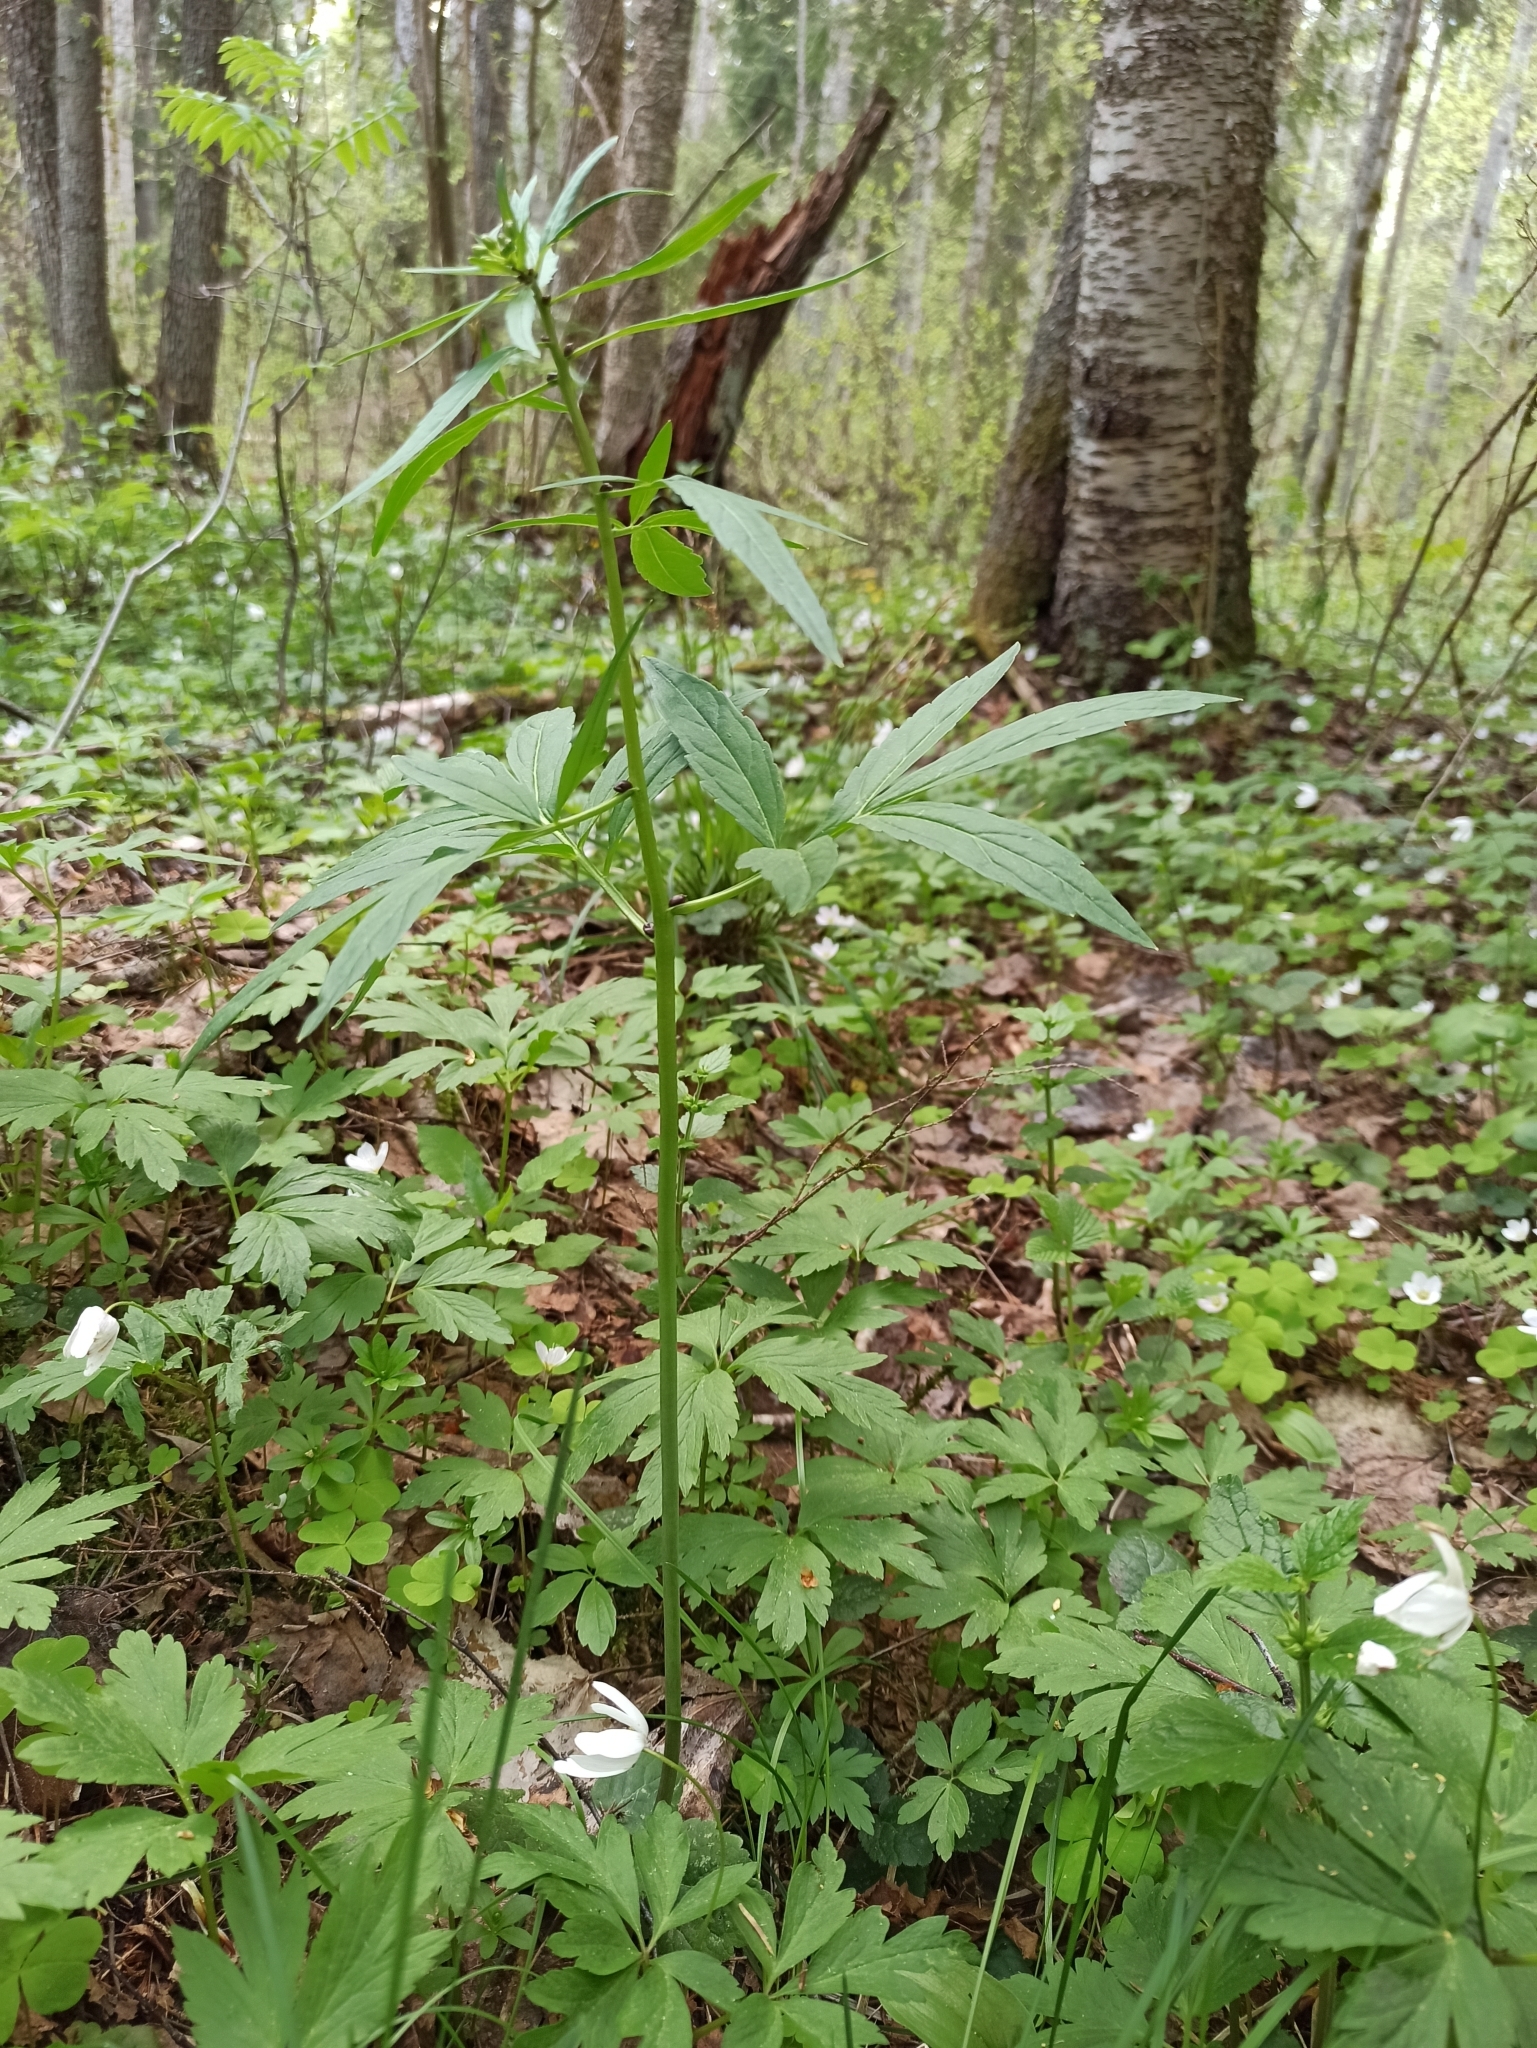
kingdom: Plantae
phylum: Tracheophyta
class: Magnoliopsida
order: Brassicales
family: Brassicaceae
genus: Cardamine
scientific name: Cardamine bulbifera
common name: Coralroot bittercress
